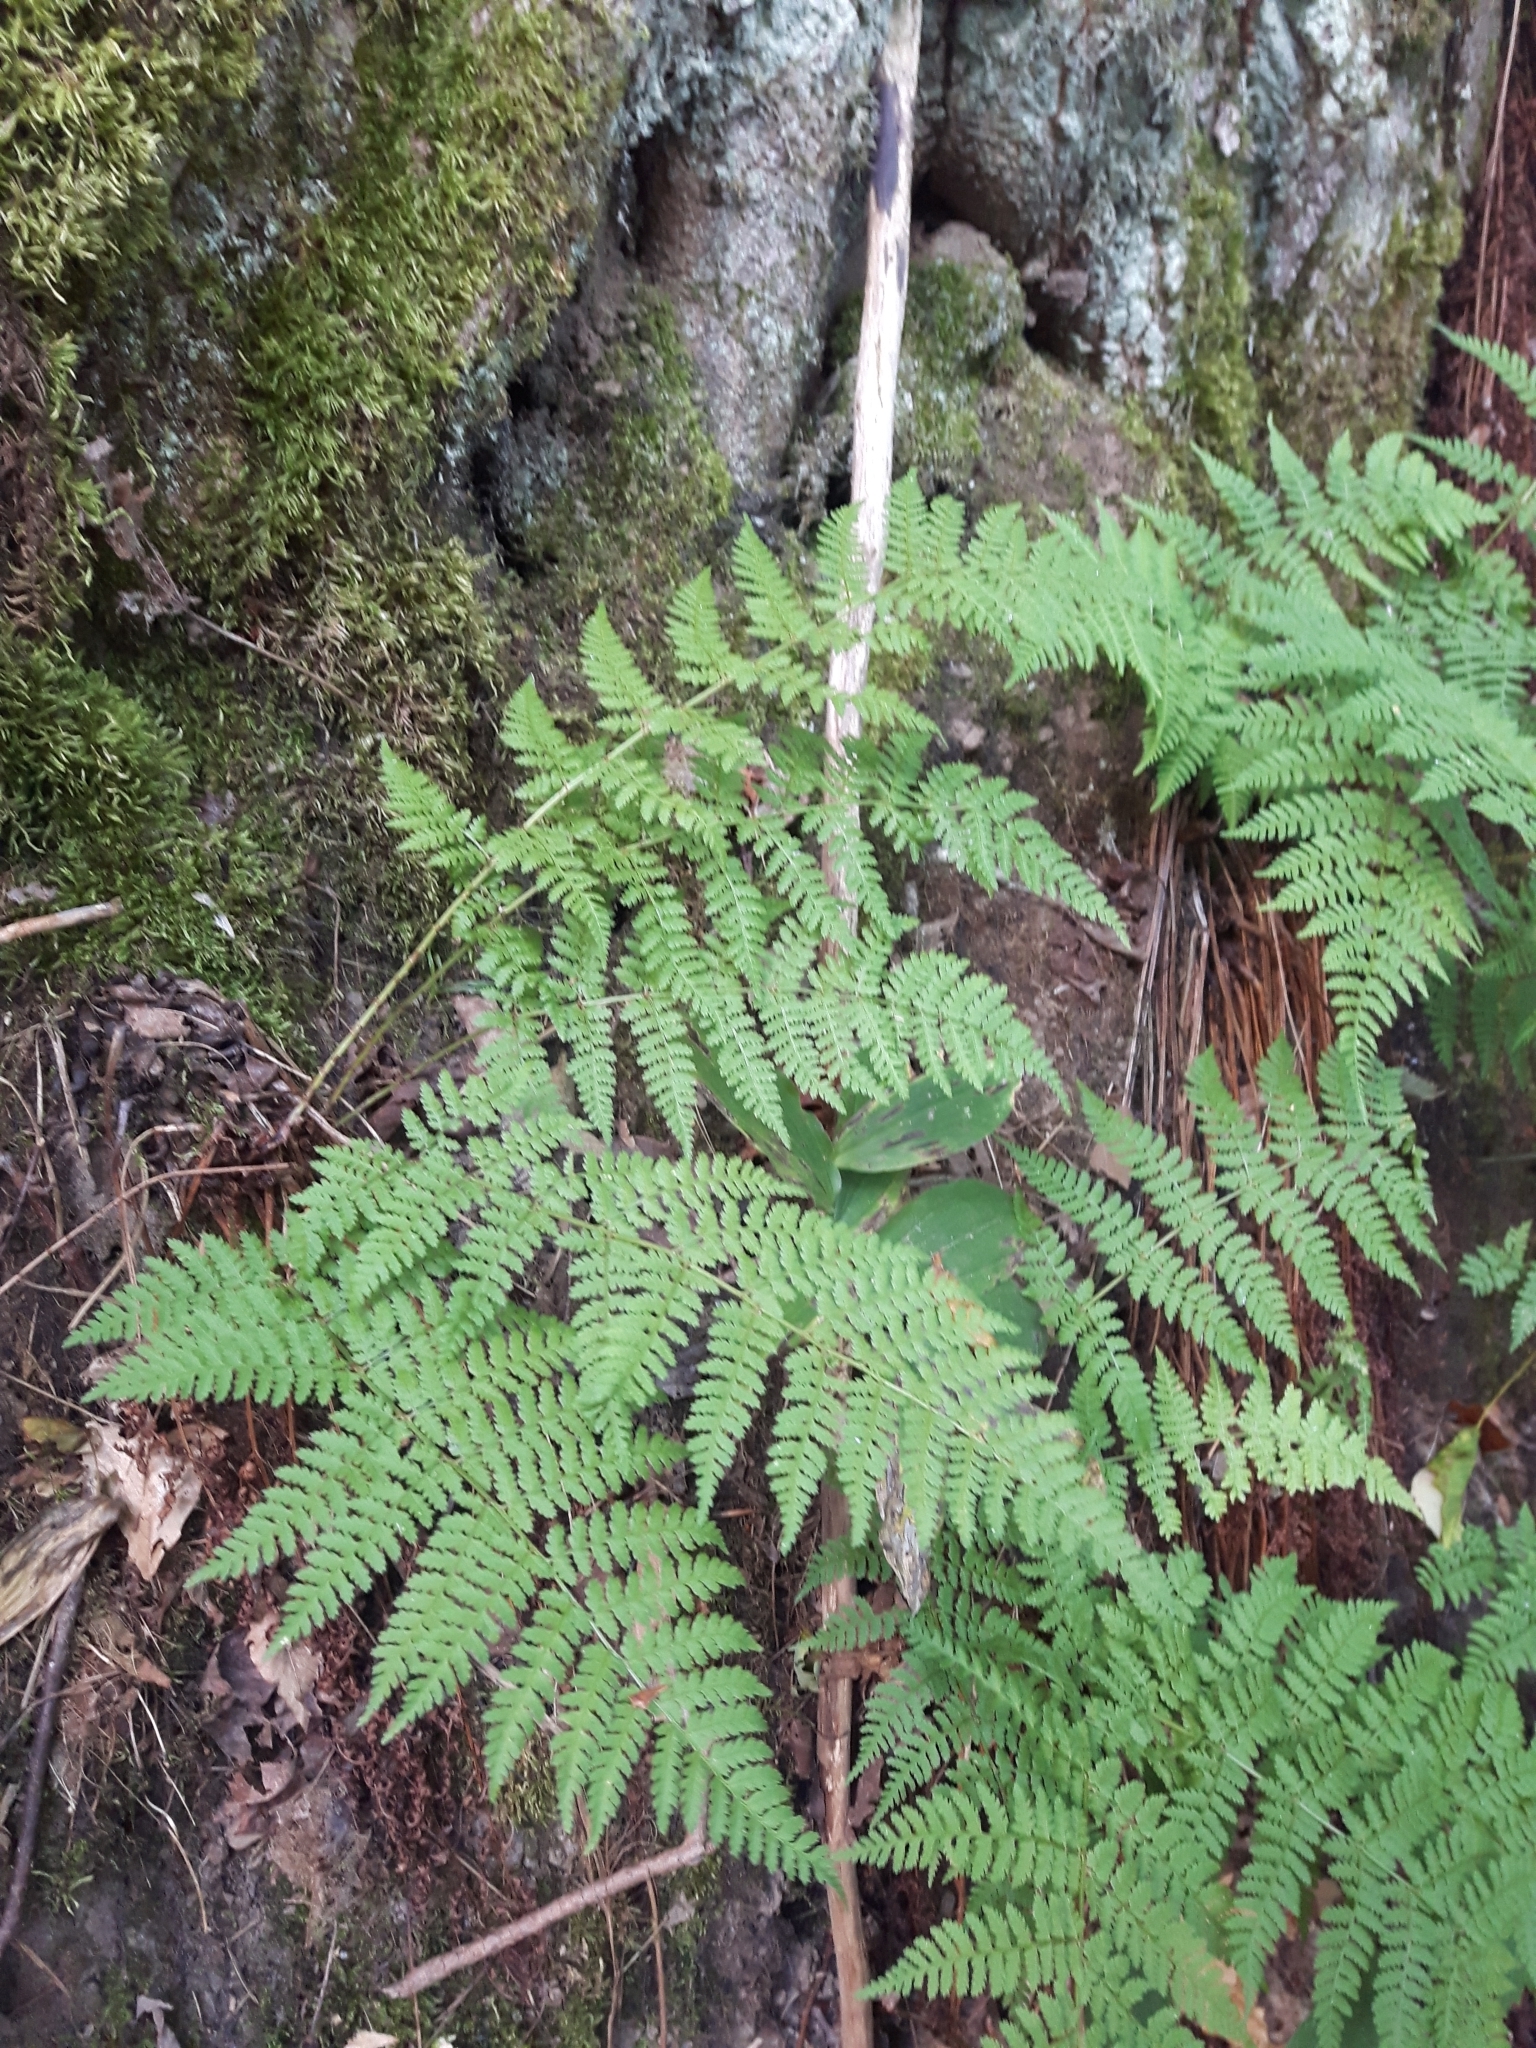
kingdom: Plantae
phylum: Tracheophyta
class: Polypodiopsida
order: Polypodiales
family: Dryopteridaceae
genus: Dryopteris
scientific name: Dryopteris intermedia
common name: Evergreen wood fern
